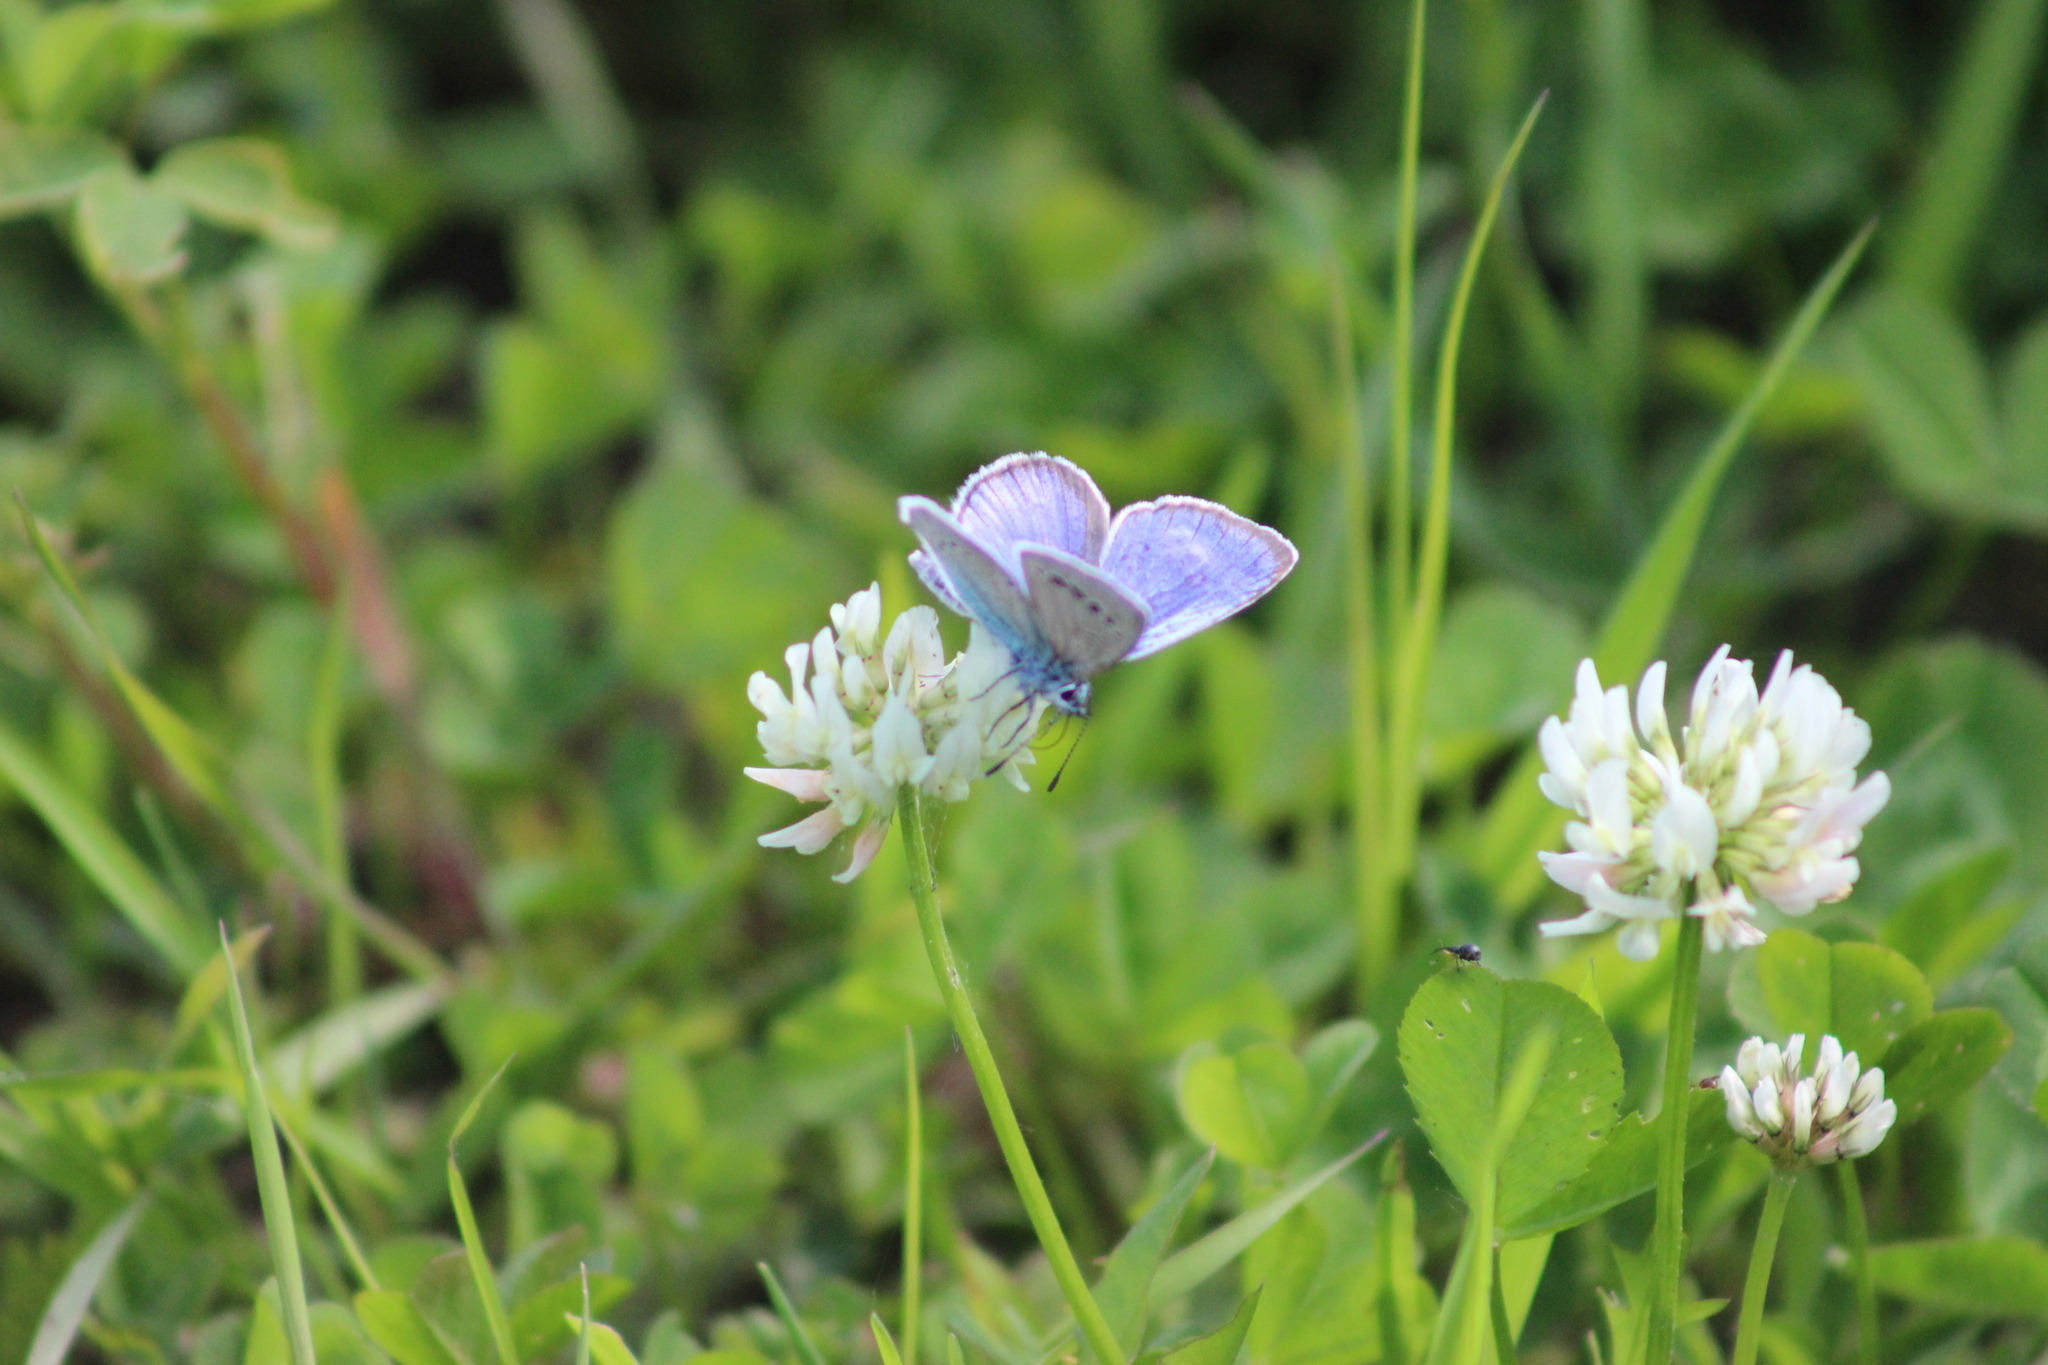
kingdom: Animalia
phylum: Arthropoda
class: Insecta
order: Lepidoptera
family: Lycaenidae
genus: Glaucopsyche
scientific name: Glaucopsyche alexis
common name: Green-underside blue
